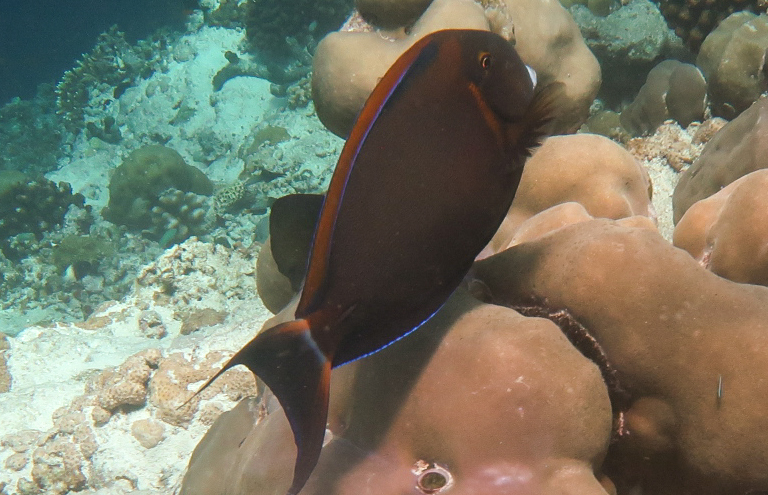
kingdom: Animalia
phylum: Chordata
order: Perciformes
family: Acanthuridae
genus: Acanthurus
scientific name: Acanthurus bariene
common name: Bariene surgeonfish
